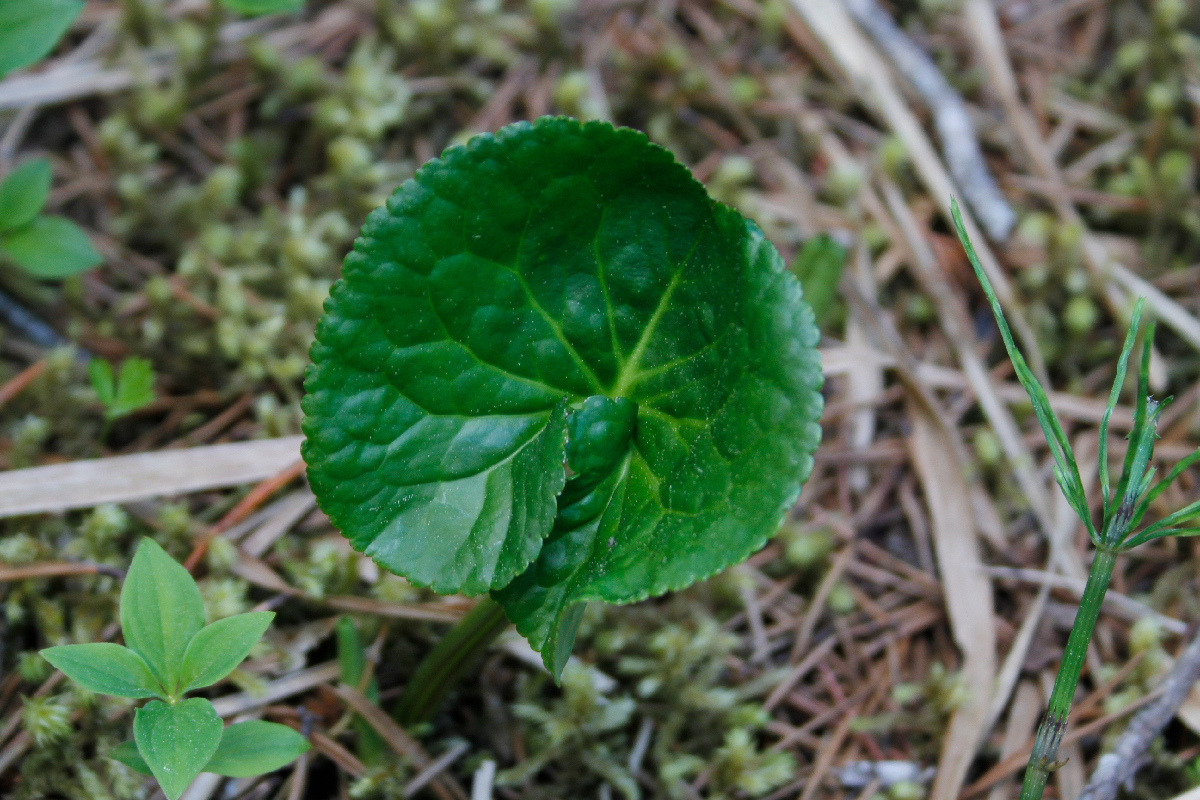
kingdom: Plantae
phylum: Tracheophyta
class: Magnoliopsida
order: Asterales
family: Menyanthaceae
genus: Nephrophyllidium
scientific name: Nephrophyllidium crista-galli
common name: Deer-cabbage
